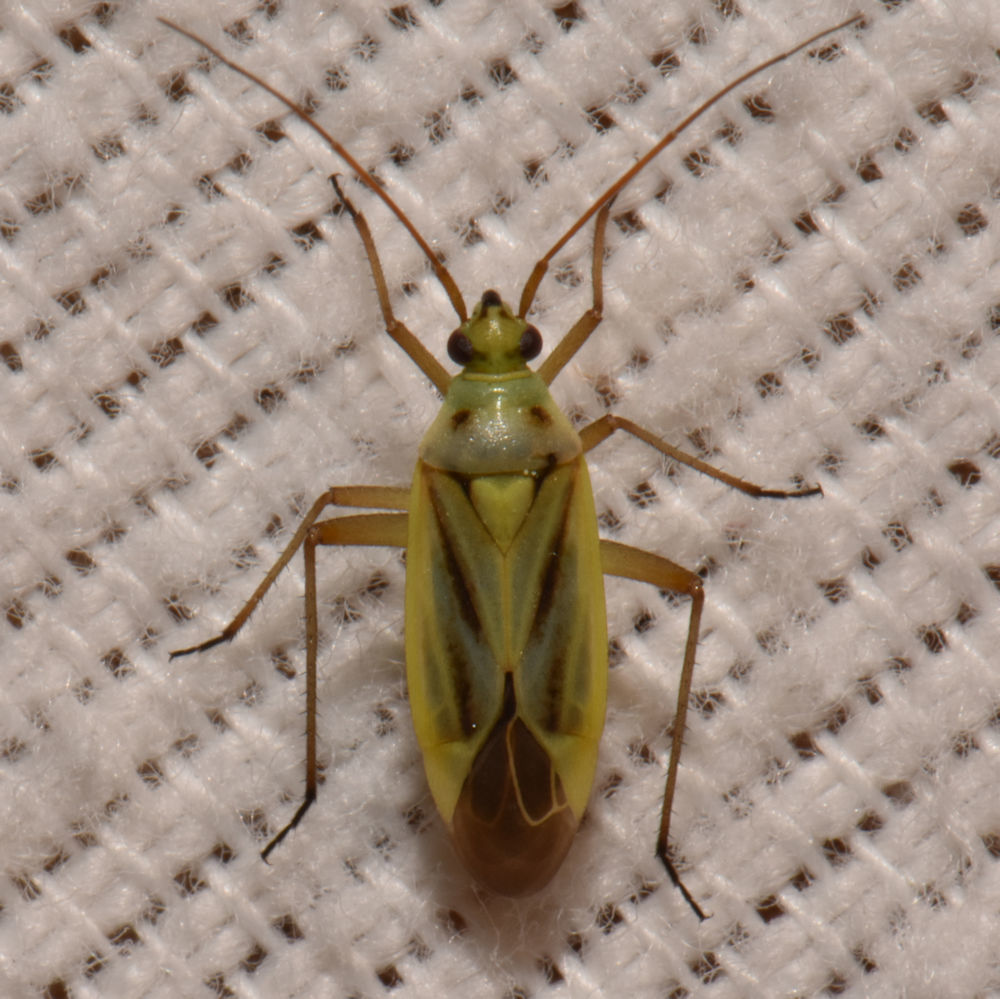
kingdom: Animalia
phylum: Arthropoda
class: Insecta
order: Hemiptera
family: Miridae
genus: Stenotus
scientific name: Stenotus binotatus
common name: Plant bug
